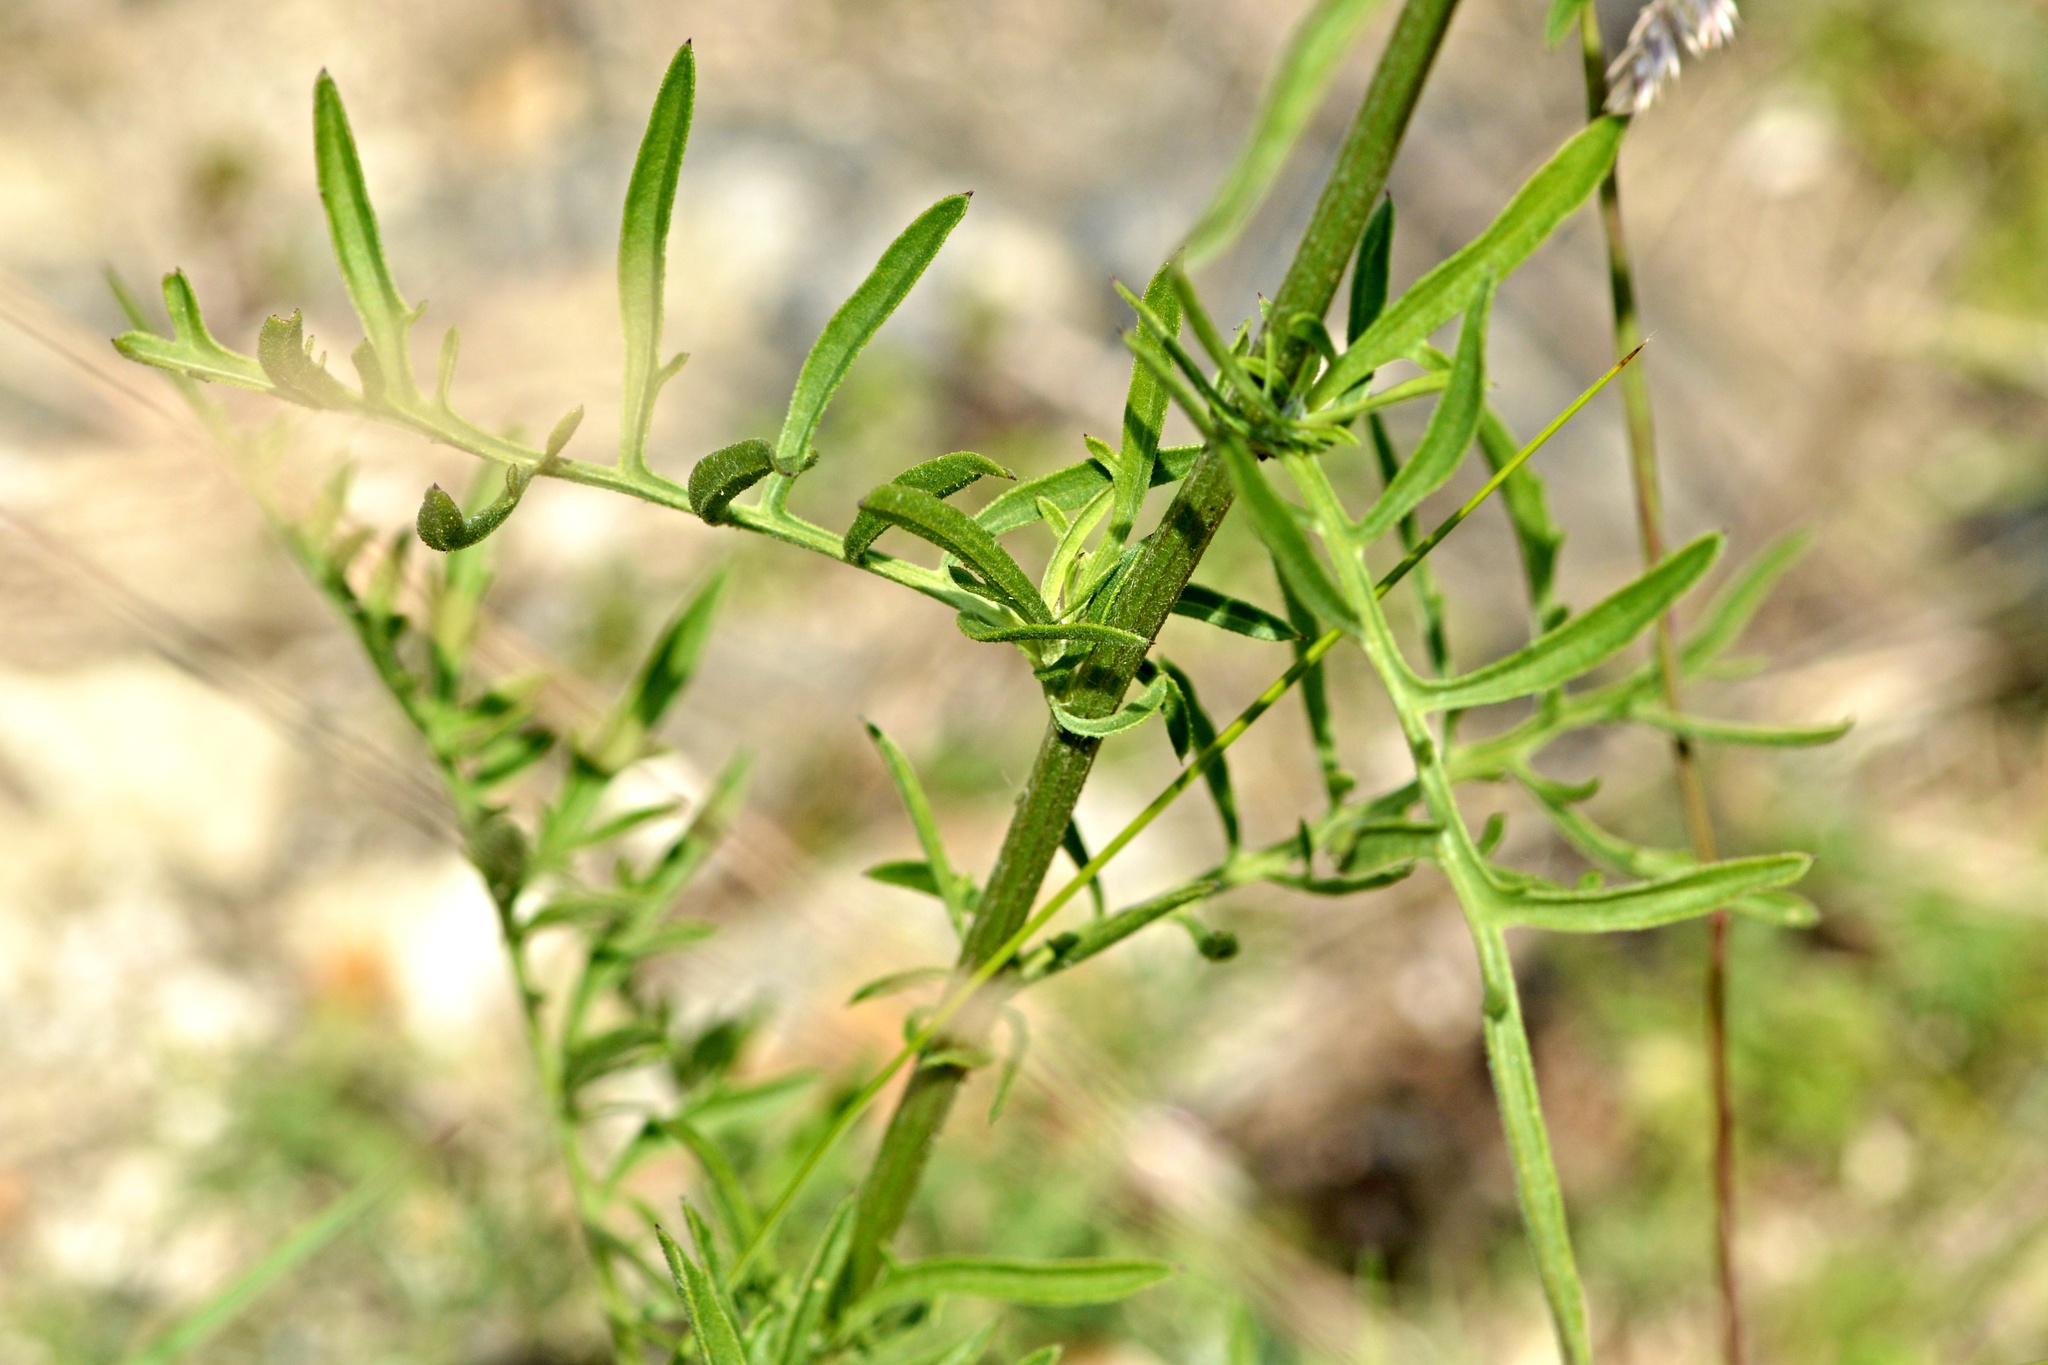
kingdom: Plantae
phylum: Tracheophyta
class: Magnoliopsida
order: Asterales
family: Asteraceae
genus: Centaurea
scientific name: Centaurea scabiosa
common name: Greater knapweed
